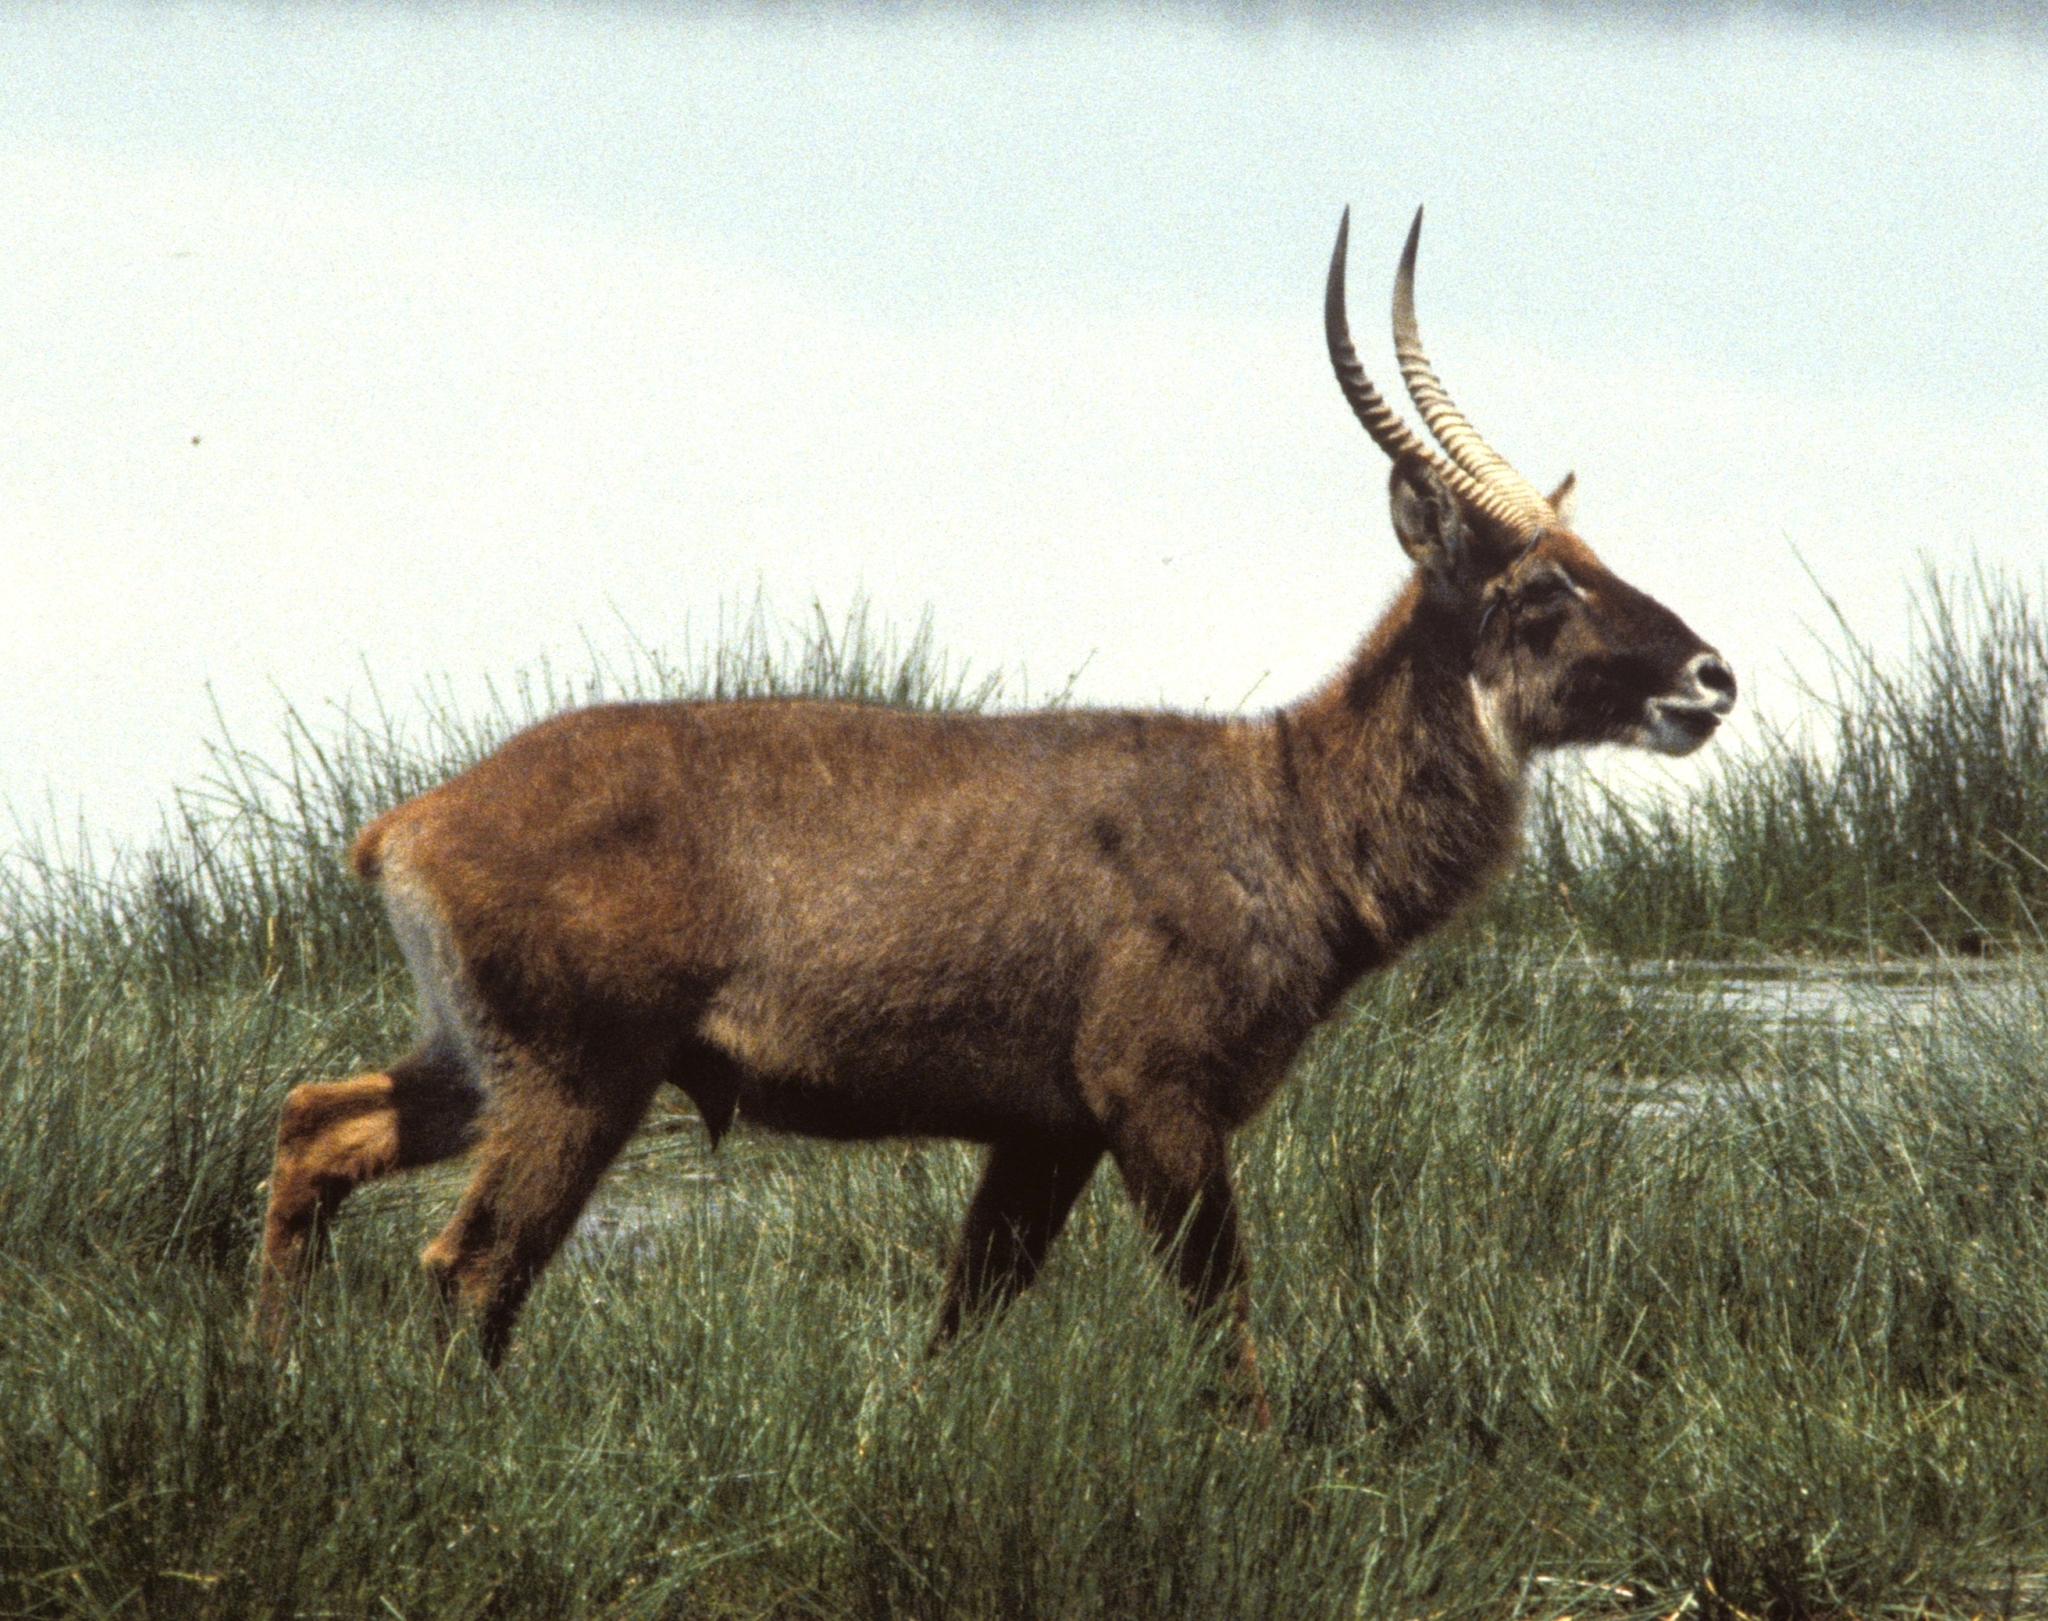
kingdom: Animalia
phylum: Chordata
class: Mammalia
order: Artiodactyla
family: Bovidae
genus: Kobus
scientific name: Kobus ellipsiprymnus
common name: Waterbuck
